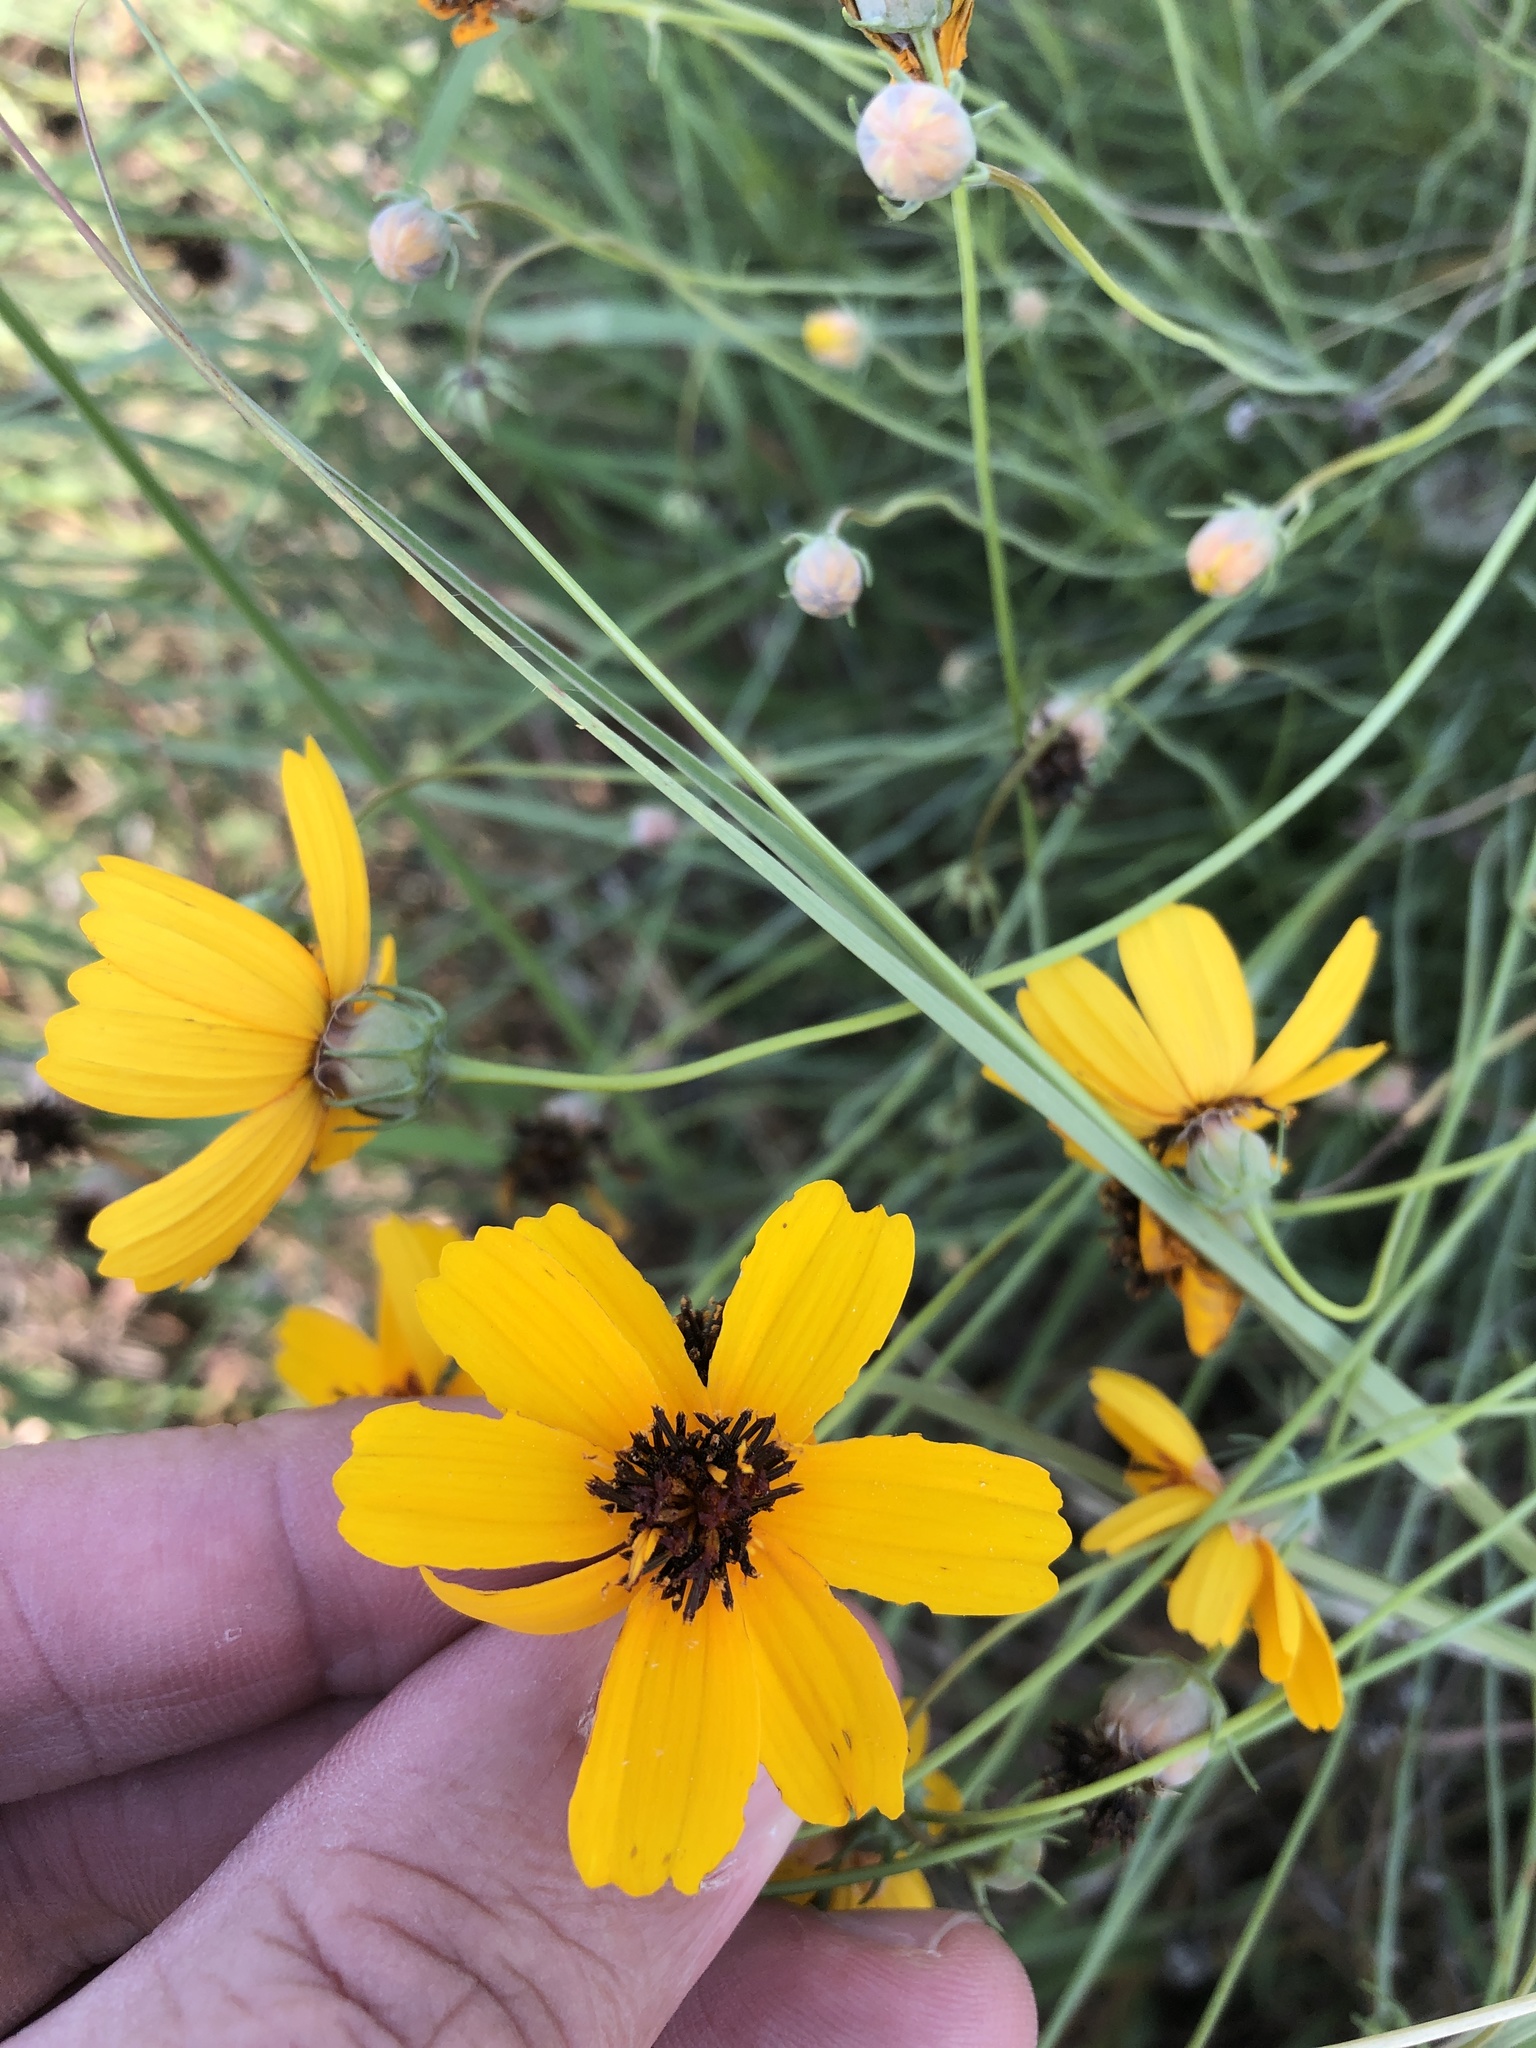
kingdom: Plantae
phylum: Tracheophyta
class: Magnoliopsida
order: Asterales
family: Asteraceae
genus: Thelesperma
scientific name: Thelesperma filifolium
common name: Stiff greenthread
